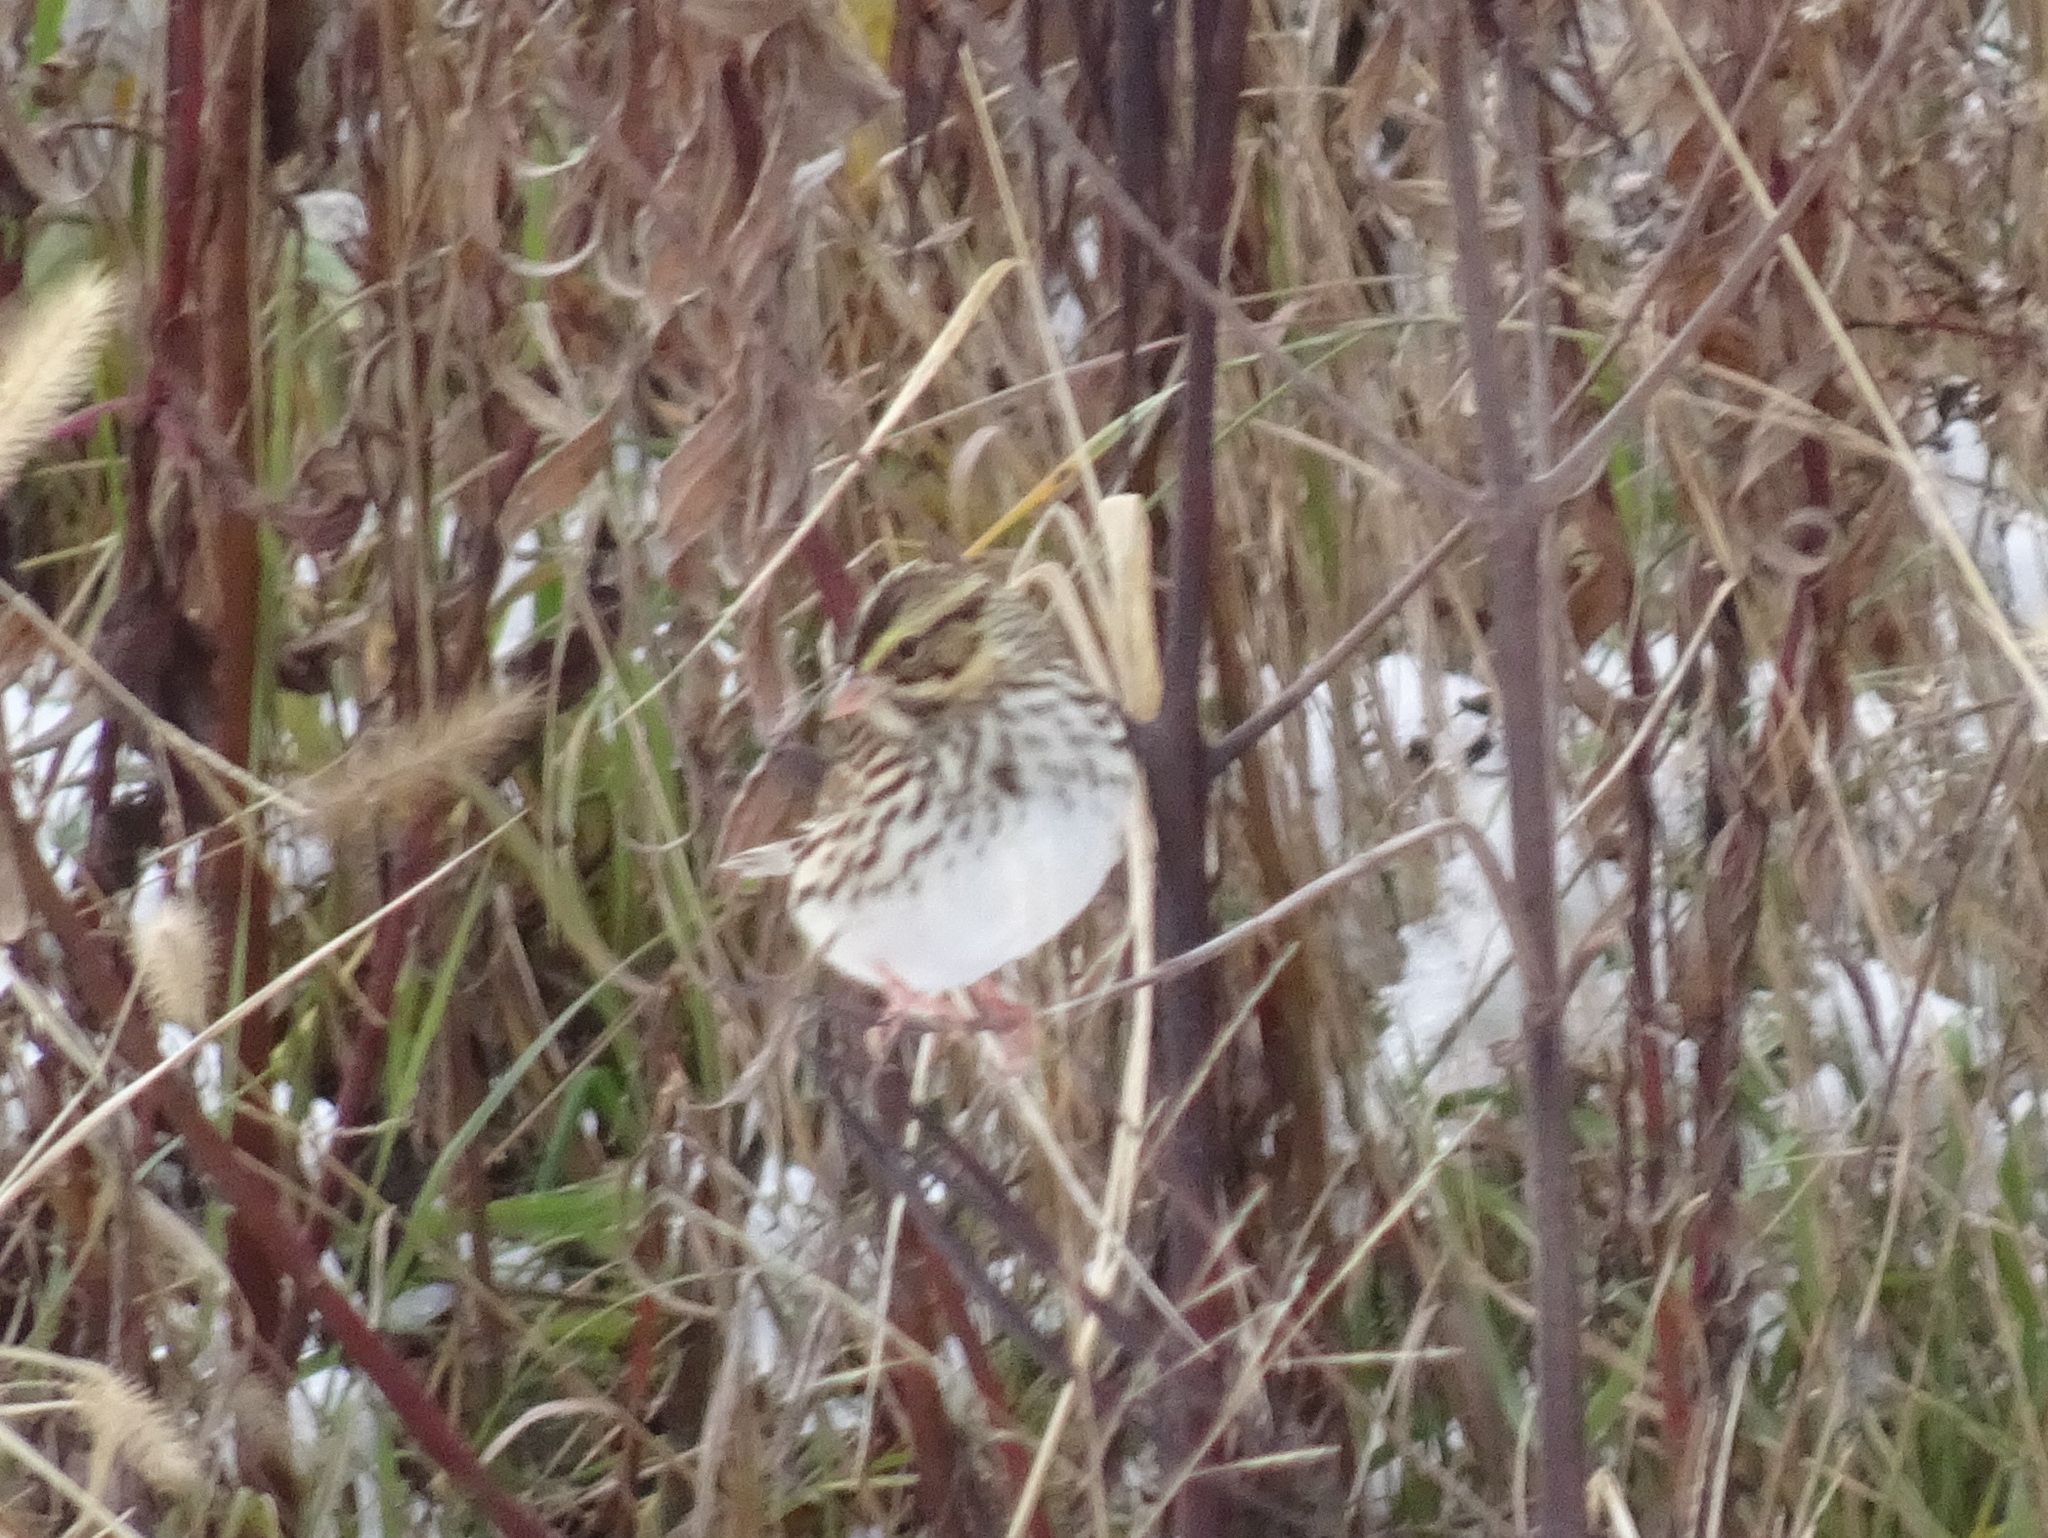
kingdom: Animalia
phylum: Chordata
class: Aves
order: Passeriformes
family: Passerellidae
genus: Passerculus
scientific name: Passerculus sandwichensis
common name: Savannah sparrow
